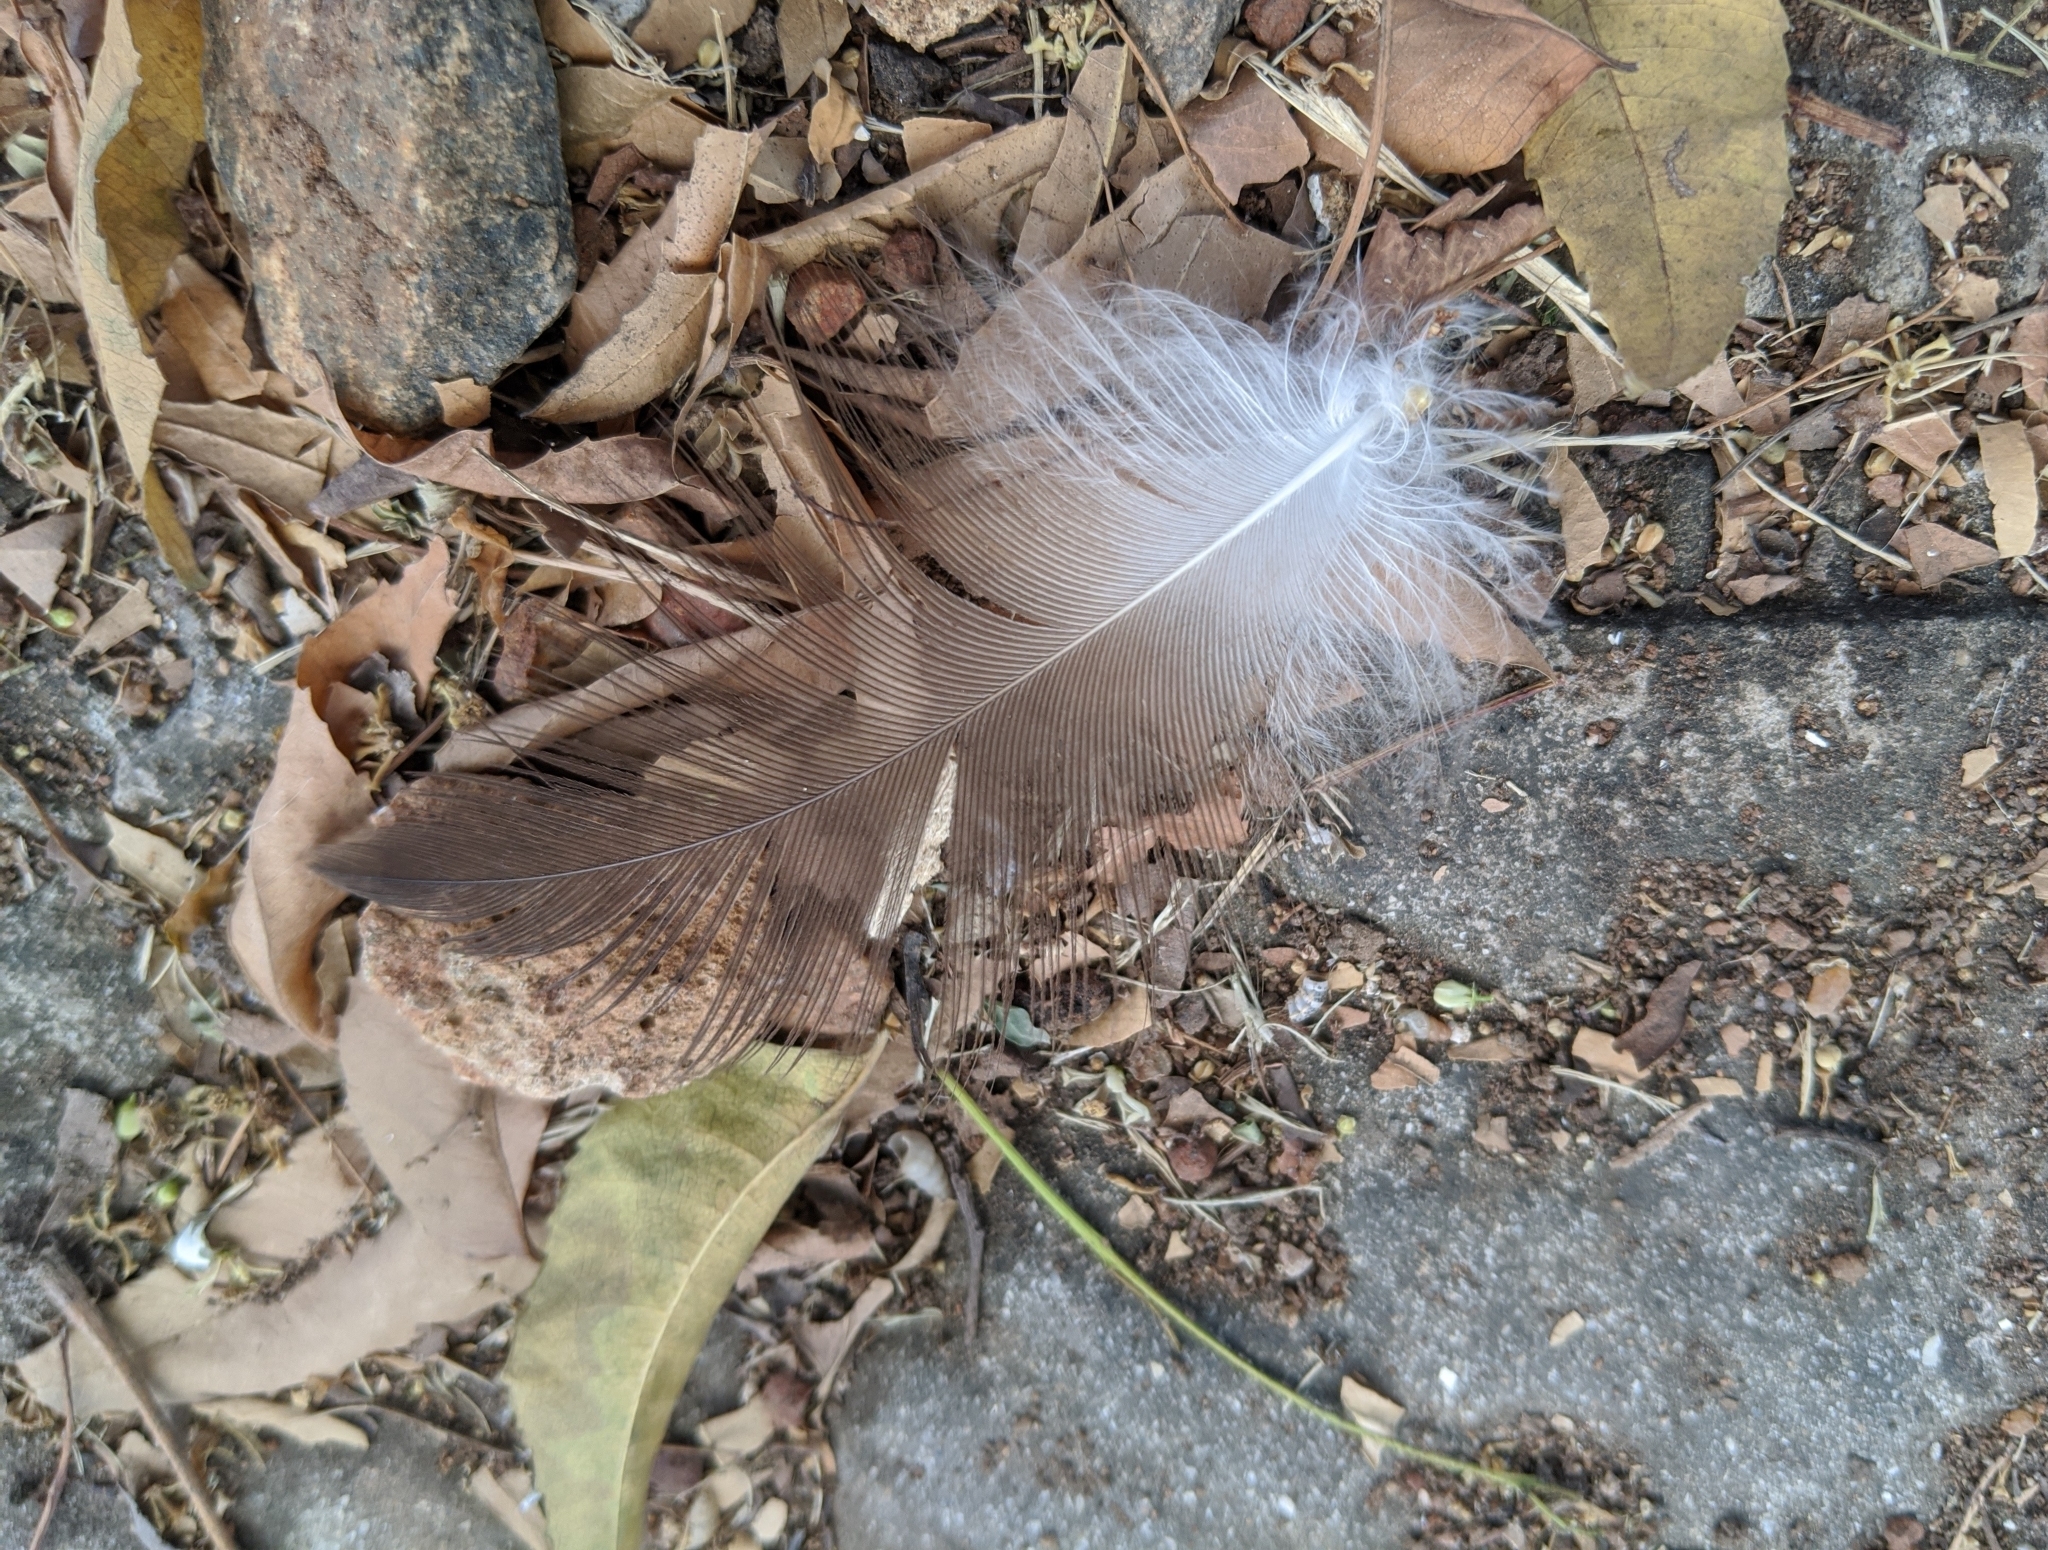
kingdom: Animalia
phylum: Chordata
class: Aves
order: Accipitriformes
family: Accipitridae
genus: Necrosyrtes
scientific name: Necrosyrtes monachus
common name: Hooded vulture
